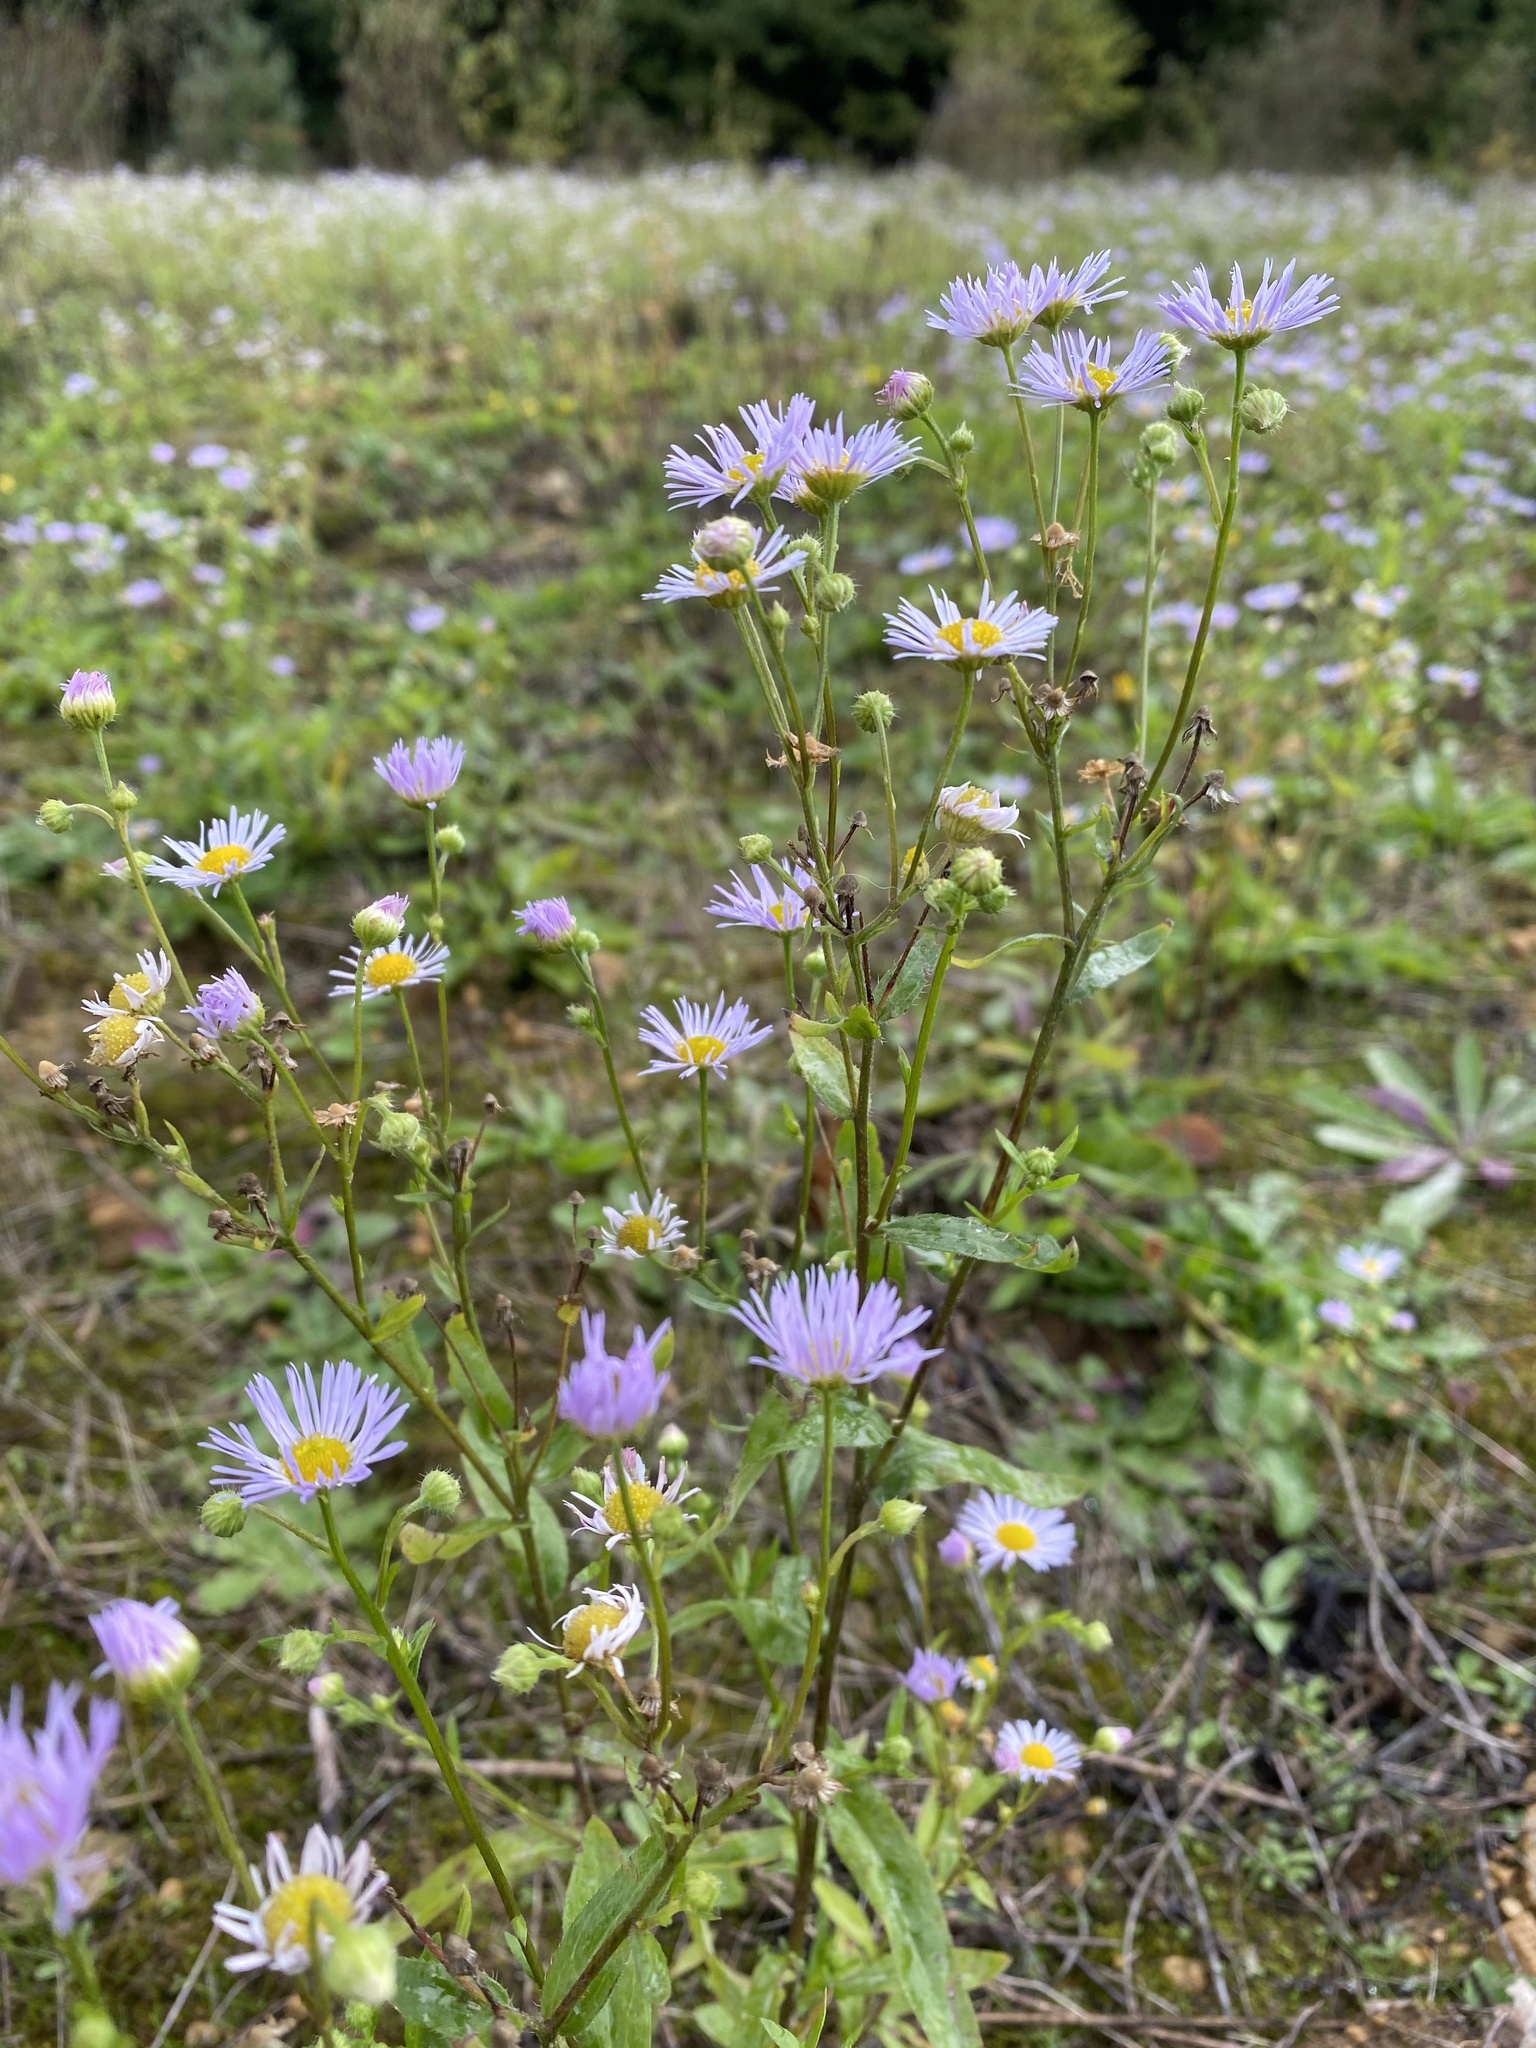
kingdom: Plantae
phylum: Tracheophyta
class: Magnoliopsida
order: Asterales
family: Asteraceae
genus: Erigeron
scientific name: Erigeron annuus
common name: Tall fleabane
